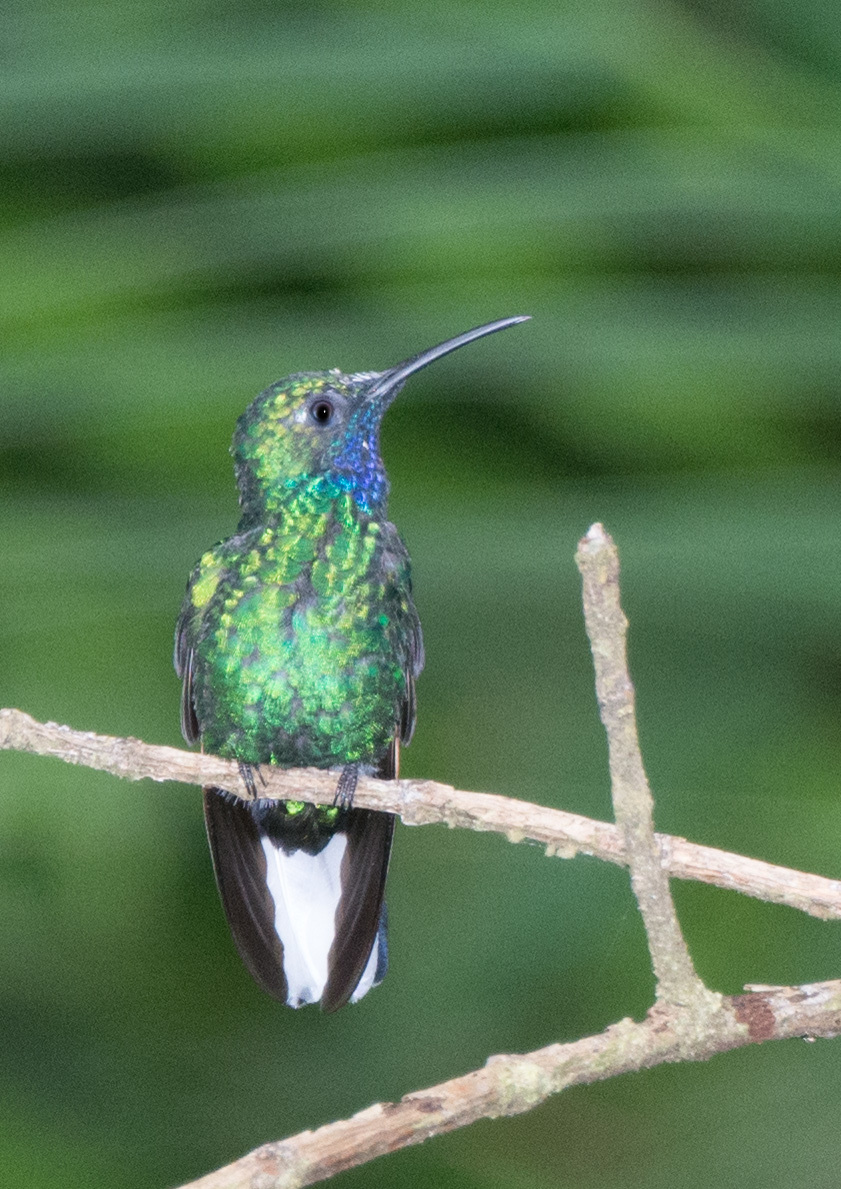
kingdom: Animalia
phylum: Chordata
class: Aves
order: Apodiformes
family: Trochilidae
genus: Campylopterus
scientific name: Campylopterus ensipennis
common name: White-tailed sabrewing
